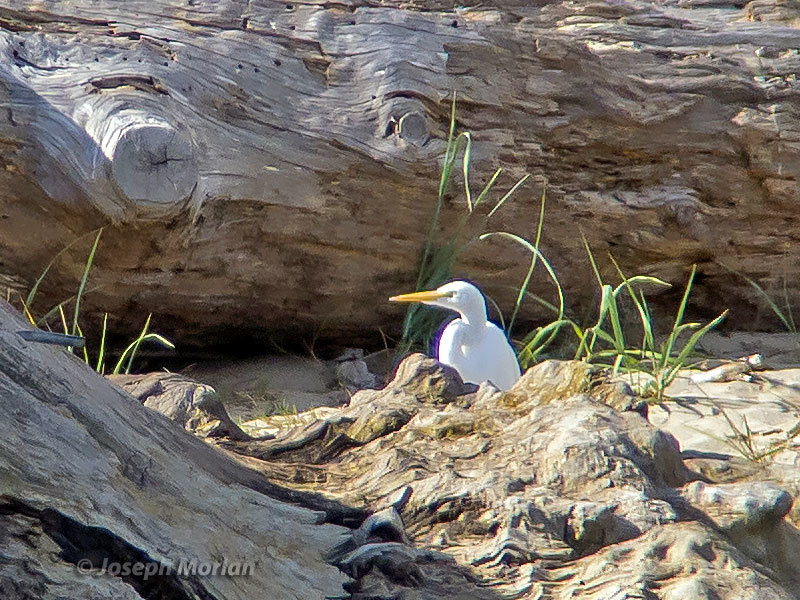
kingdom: Animalia
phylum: Chordata
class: Aves
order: Pelecaniformes
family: Ardeidae
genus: Ardea
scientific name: Ardea alba
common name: Great egret
